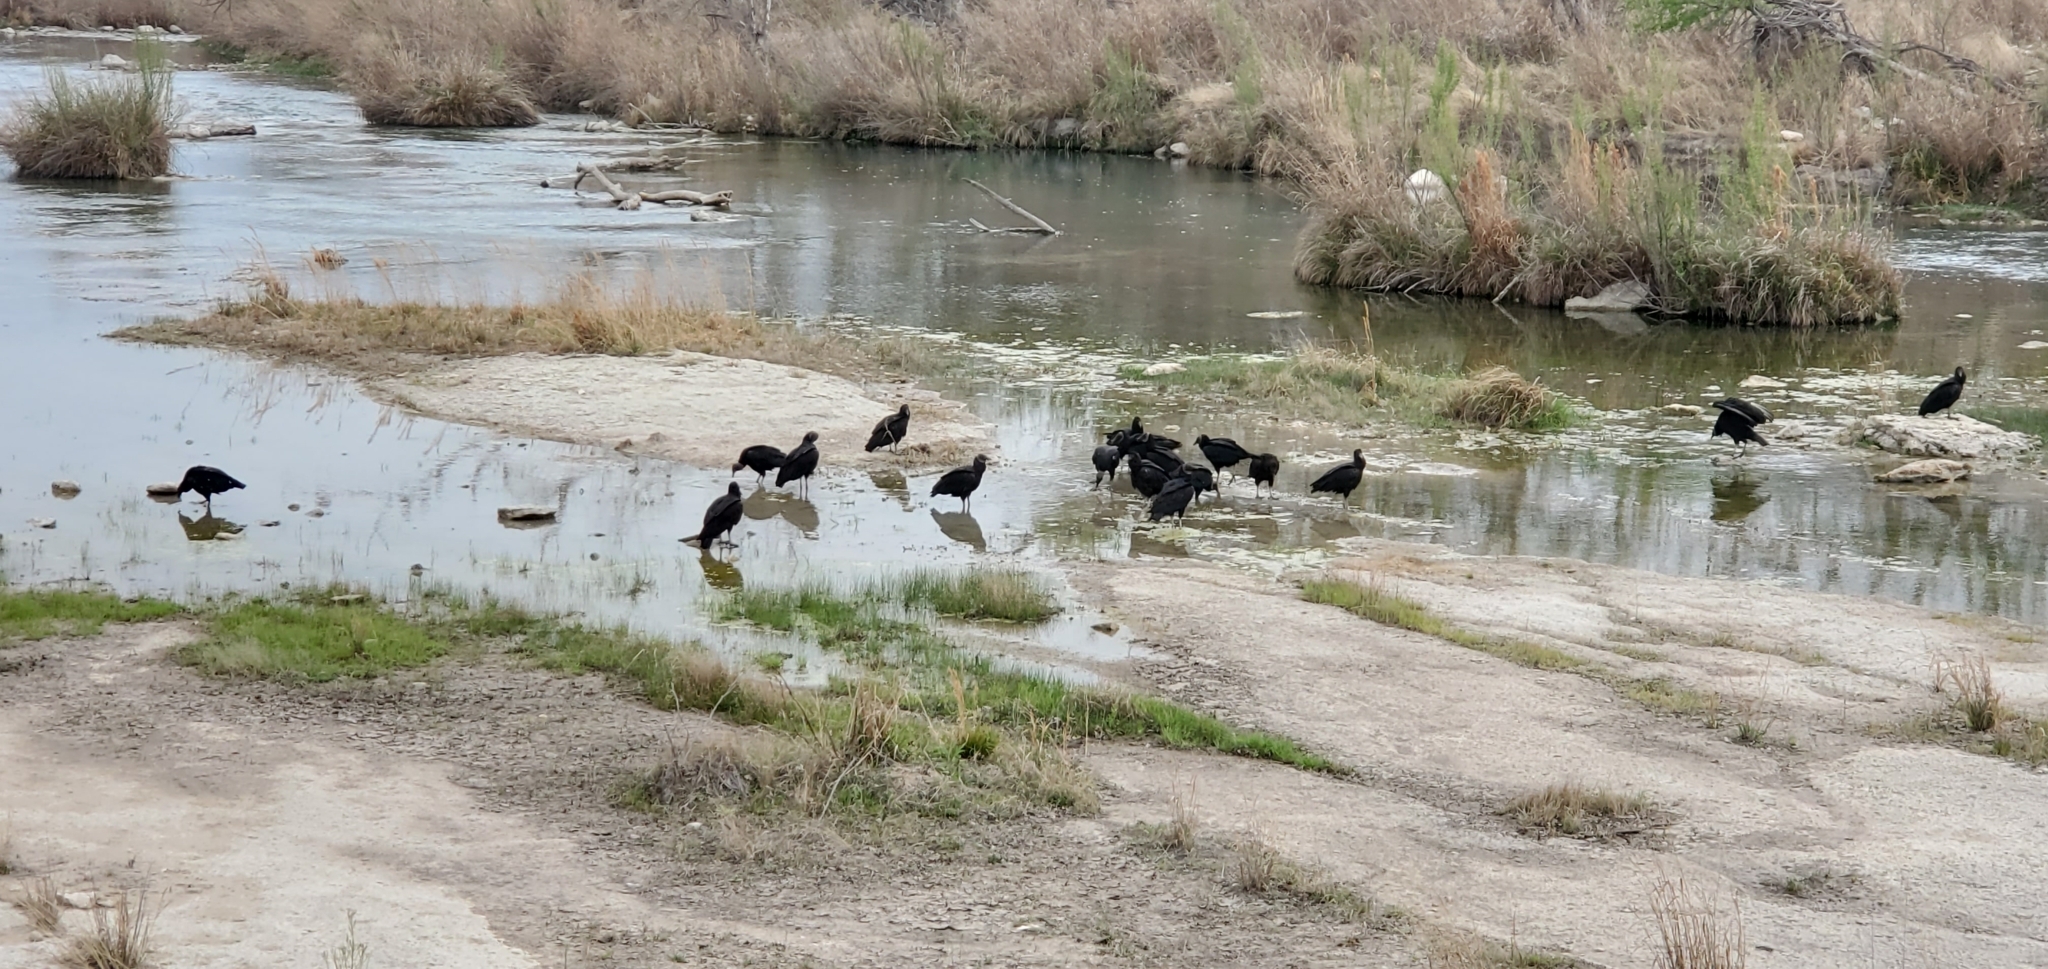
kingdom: Animalia
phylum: Chordata
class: Aves
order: Accipitriformes
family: Cathartidae
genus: Coragyps
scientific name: Coragyps atratus
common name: Black vulture
